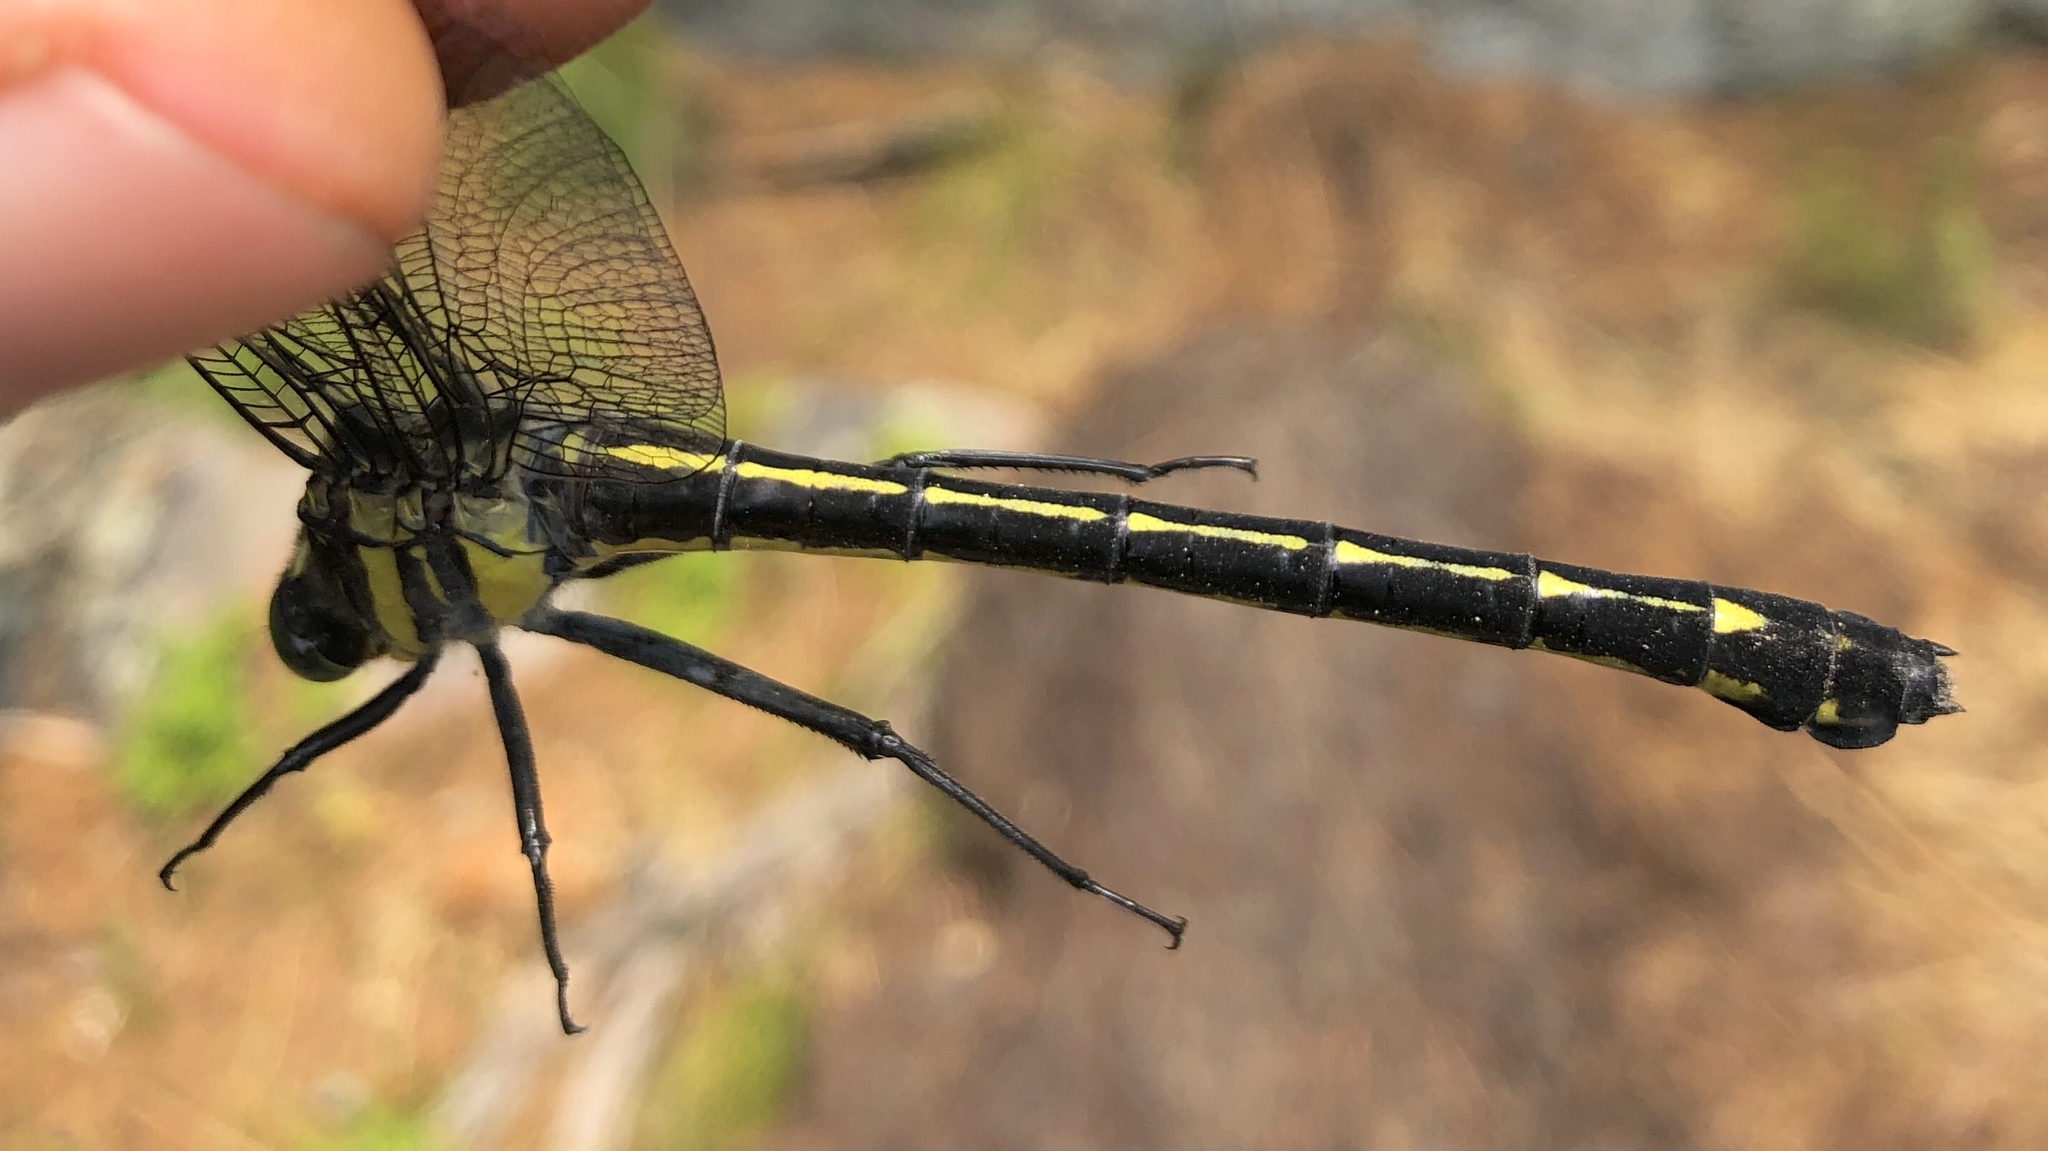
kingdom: Animalia
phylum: Arthropoda
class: Insecta
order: Odonata
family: Gomphidae
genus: Hagenius
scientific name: Hagenius brevistylus
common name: Dragonhunter
